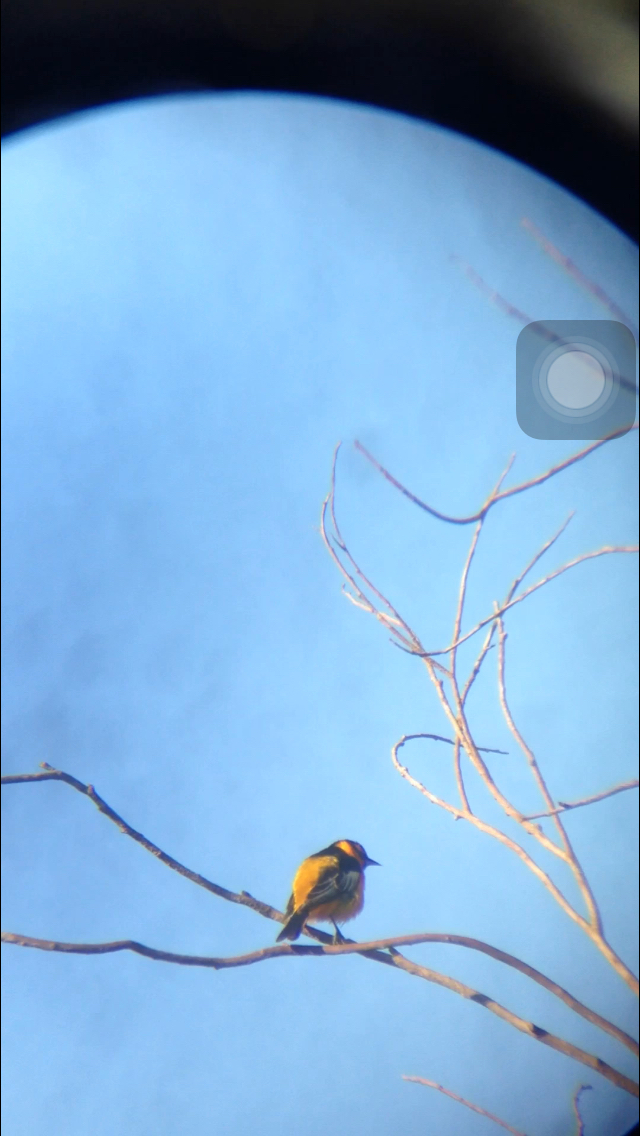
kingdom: Animalia
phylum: Chordata
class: Aves
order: Passeriformes
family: Icteridae
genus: Icterus
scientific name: Icterus bullockii
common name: Bullock's oriole
